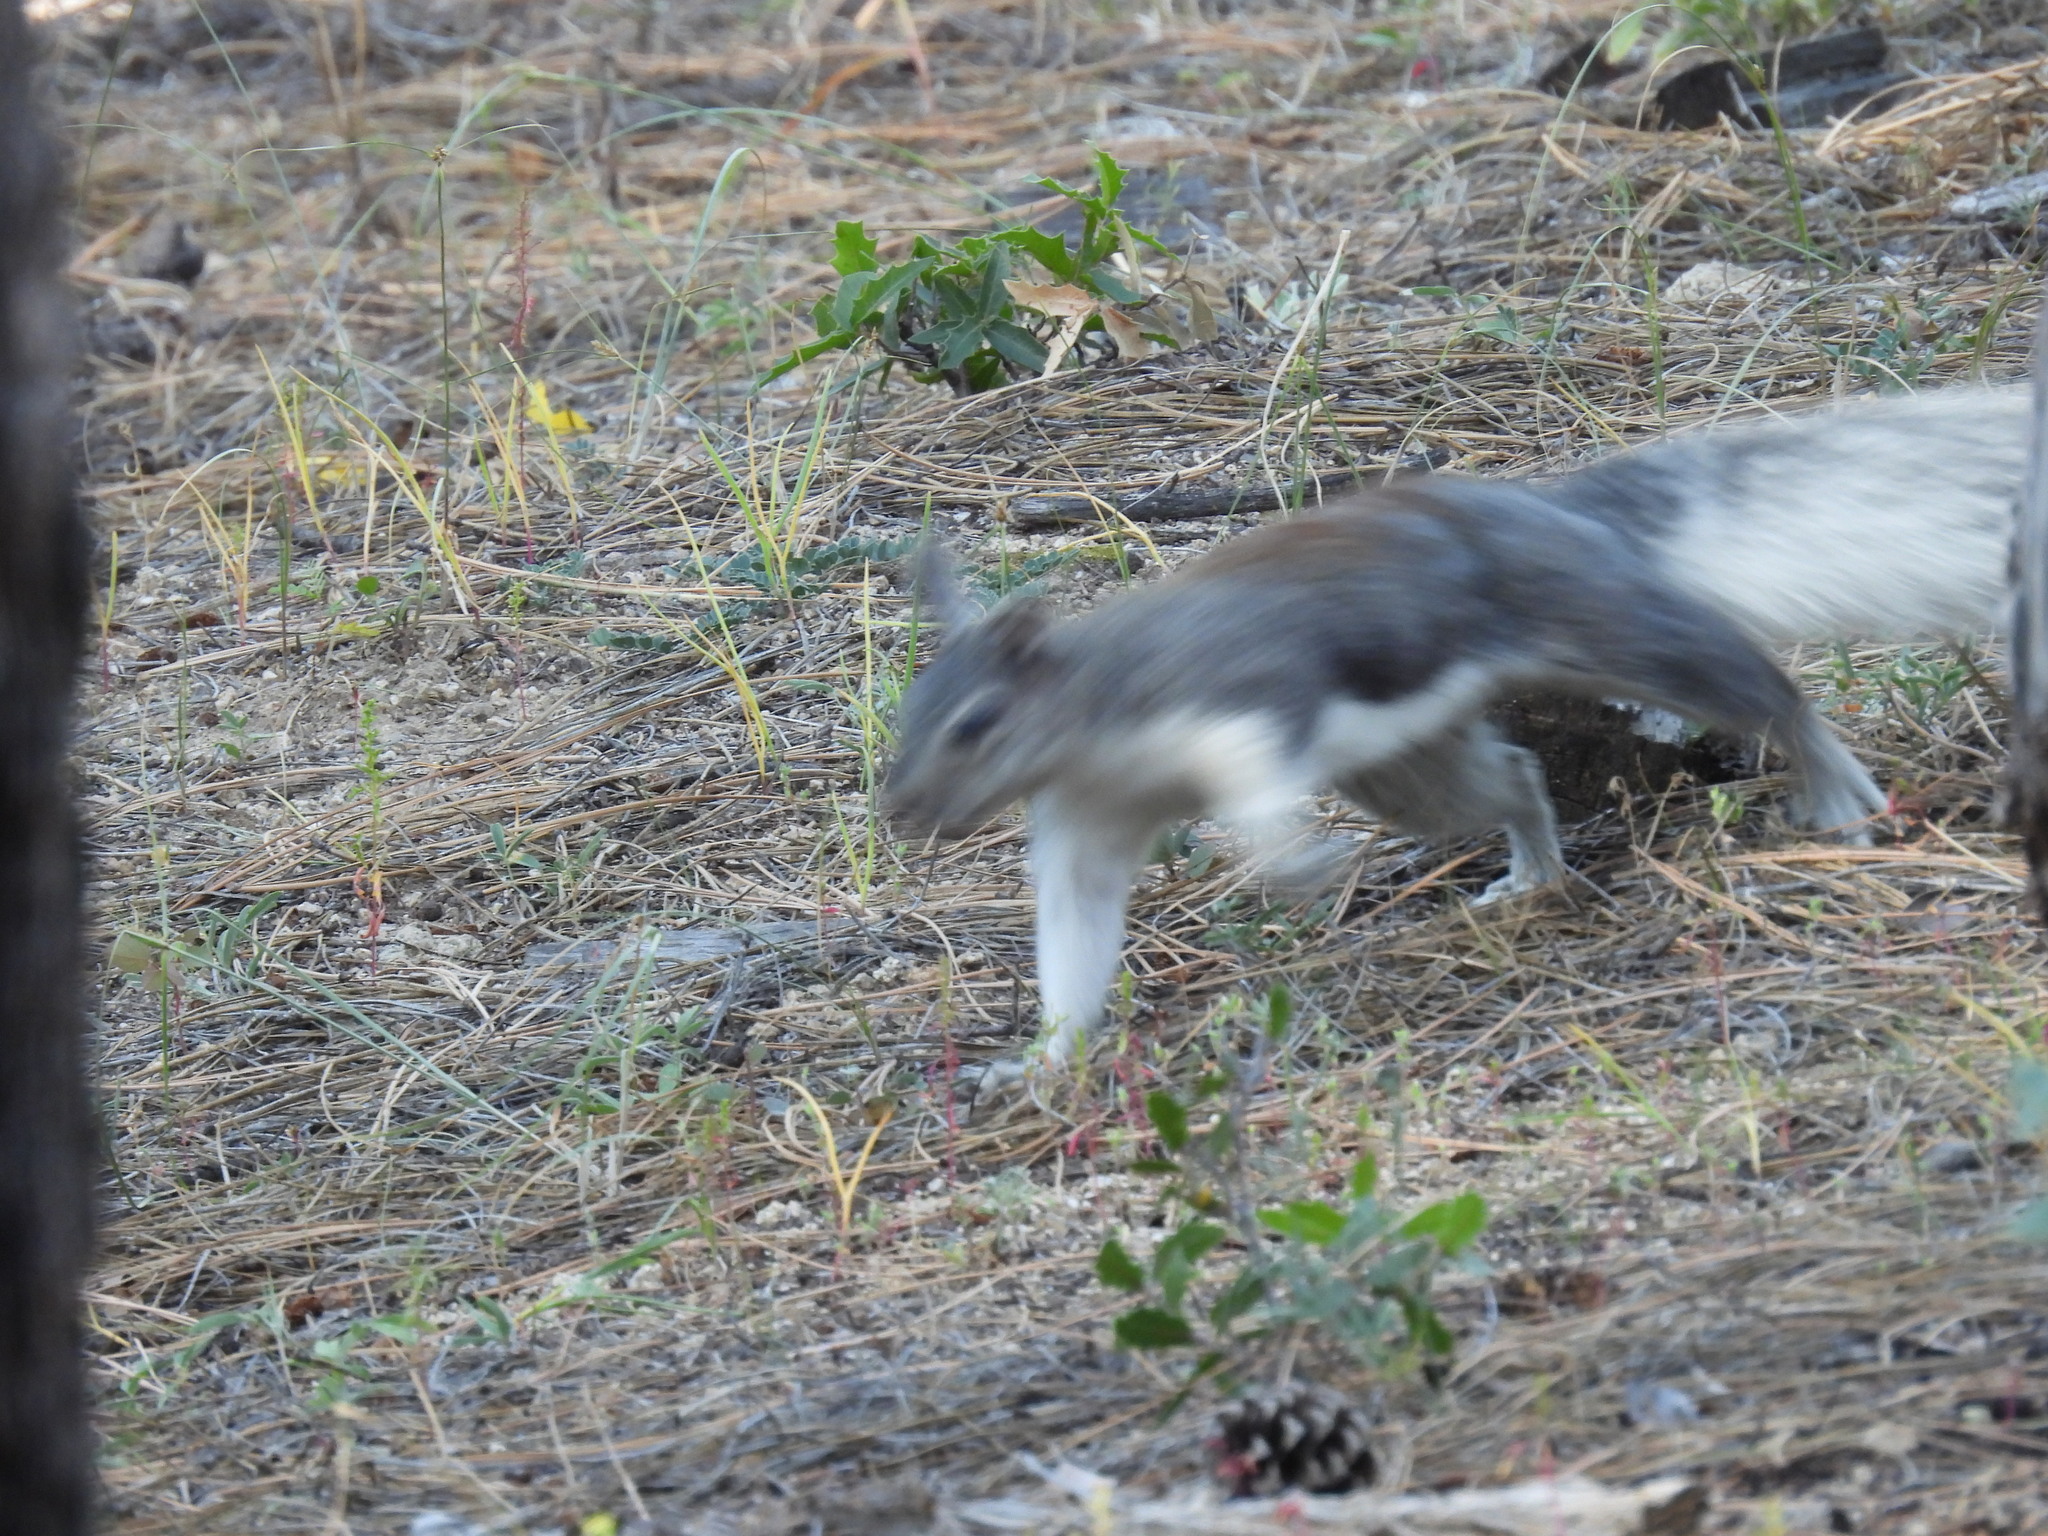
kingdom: Animalia
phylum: Chordata
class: Mammalia
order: Rodentia
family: Sciuridae
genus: Sciurus
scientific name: Sciurus aberti
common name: Abert's squirrel
